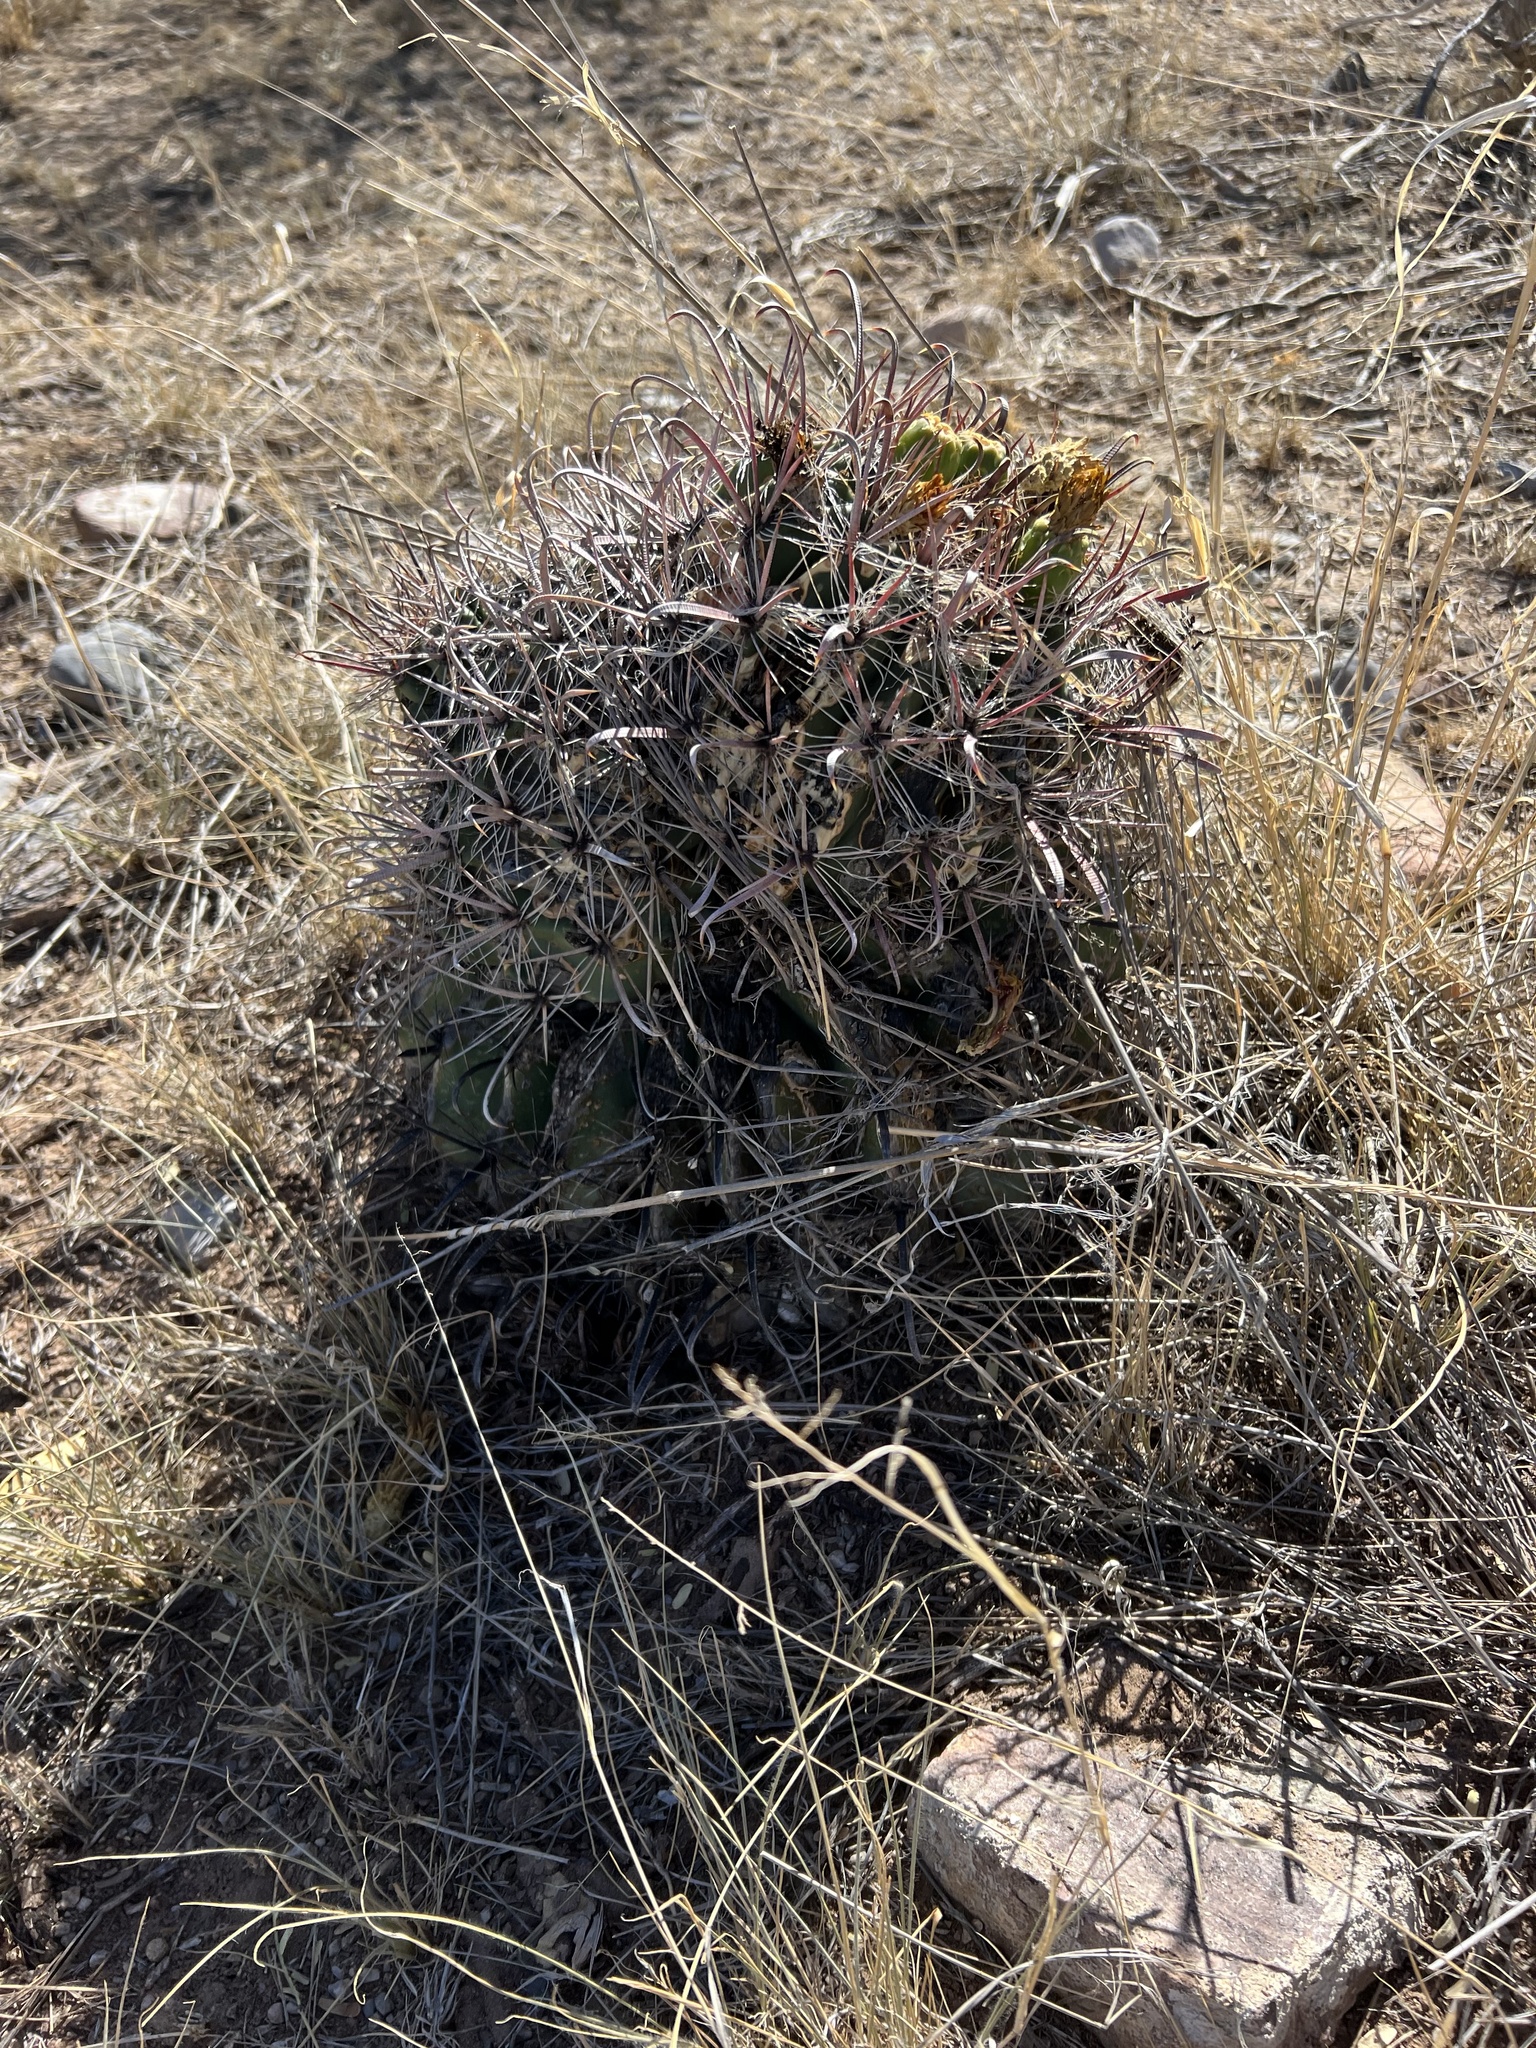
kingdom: Plantae
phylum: Tracheophyta
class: Magnoliopsida
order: Caryophyllales
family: Cactaceae
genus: Ferocactus
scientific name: Ferocactus wislizeni
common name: Candy barrel cactus
